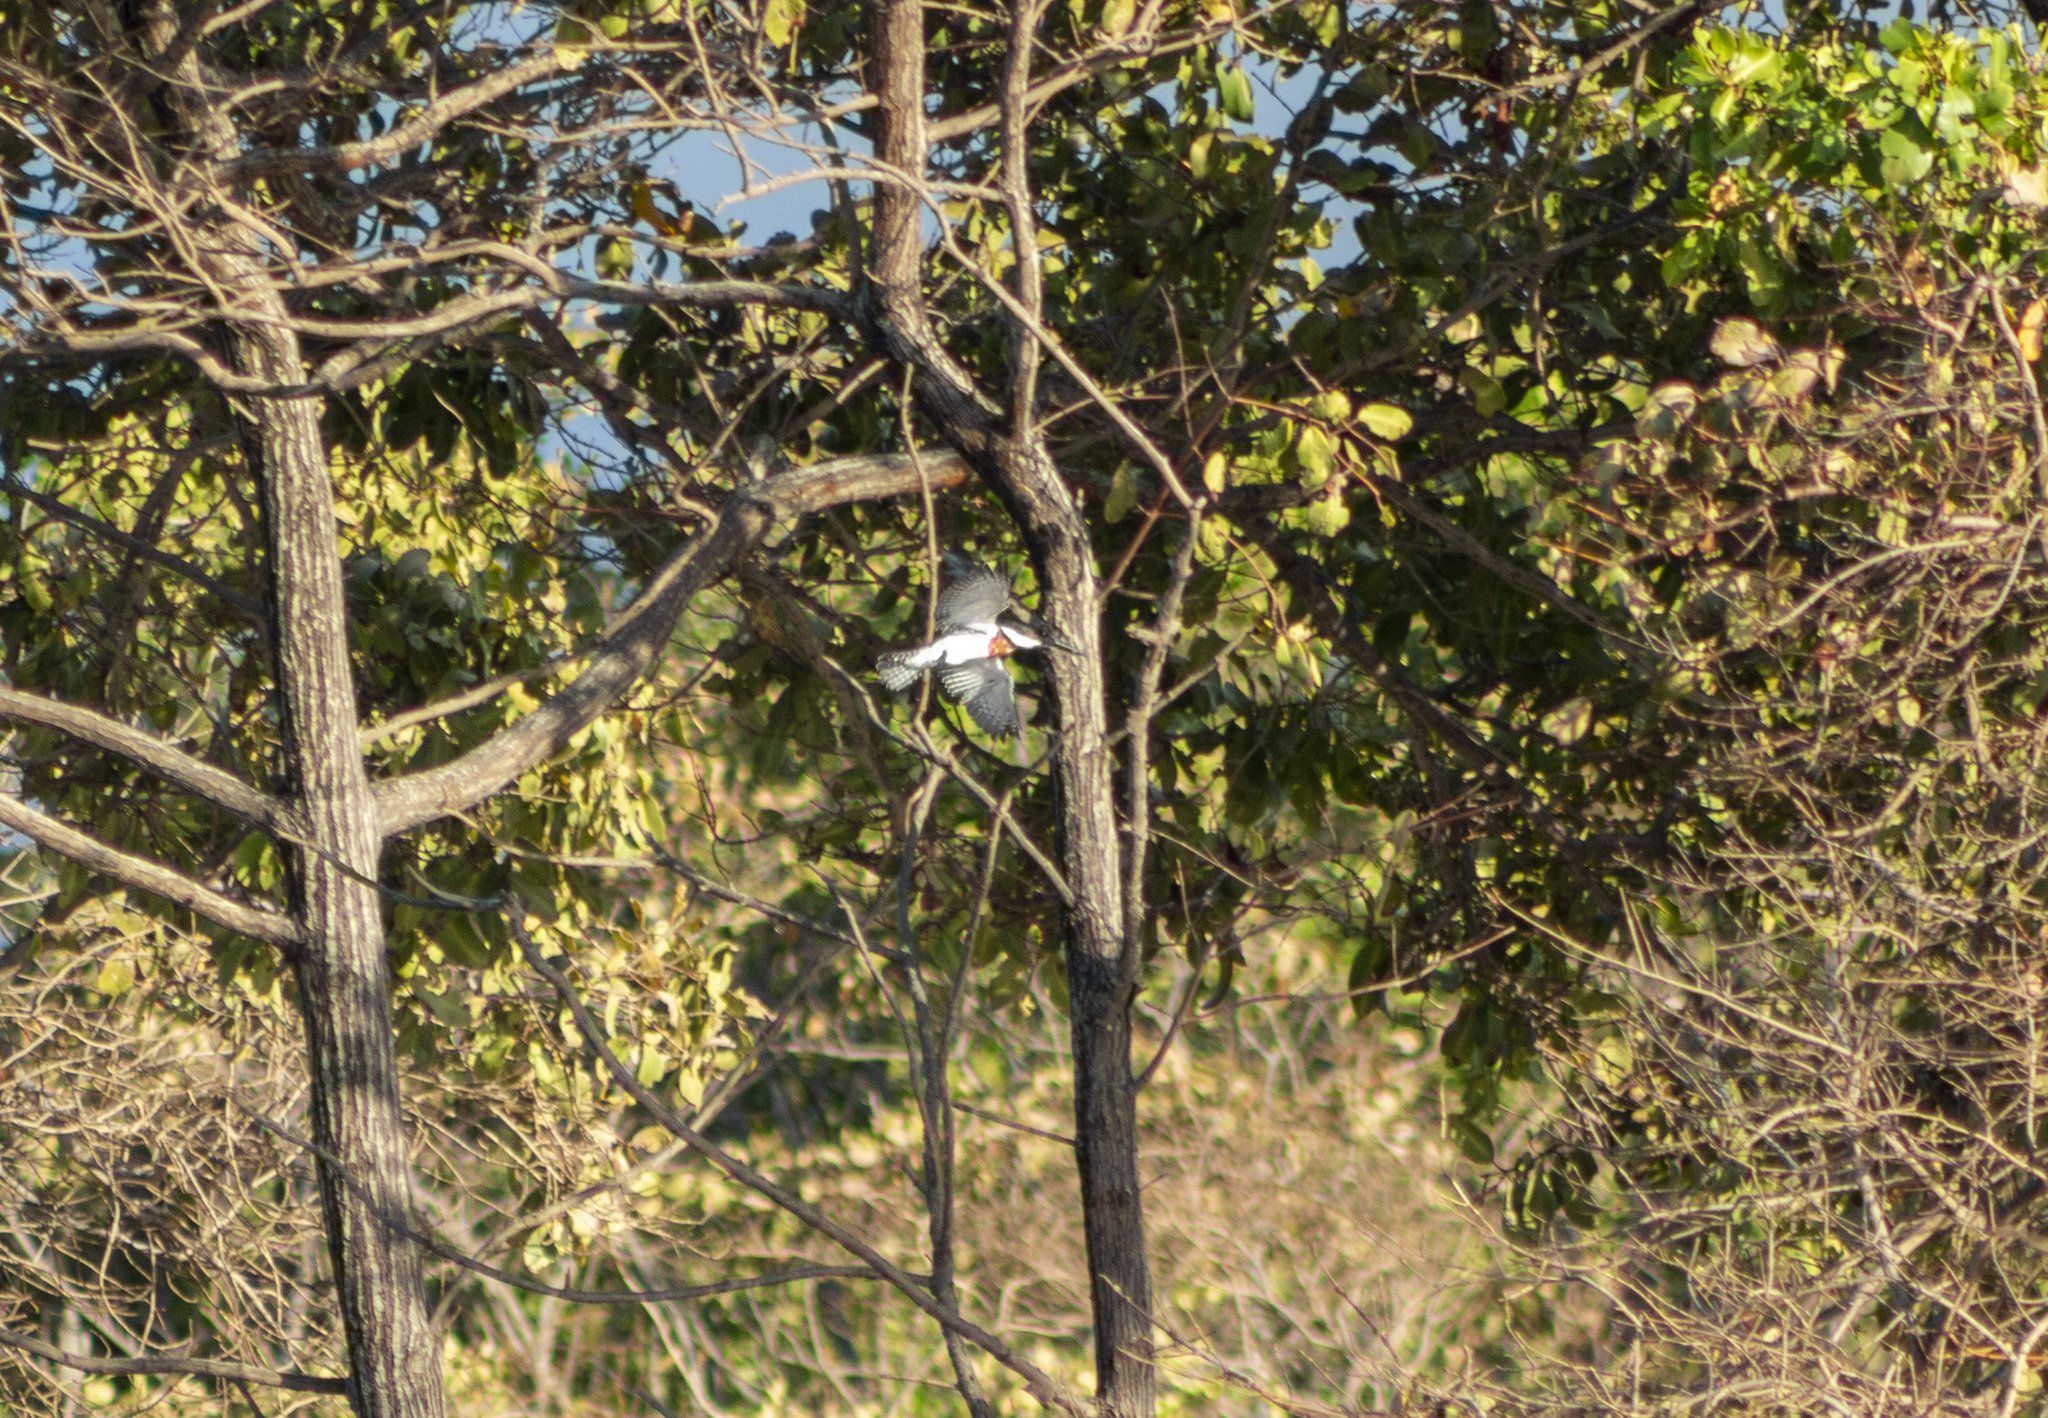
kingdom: Animalia
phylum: Chordata
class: Aves
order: Coraciiformes
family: Alcedinidae
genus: Chloroceryle
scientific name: Chloroceryle amazona
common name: Amazon kingfisher
